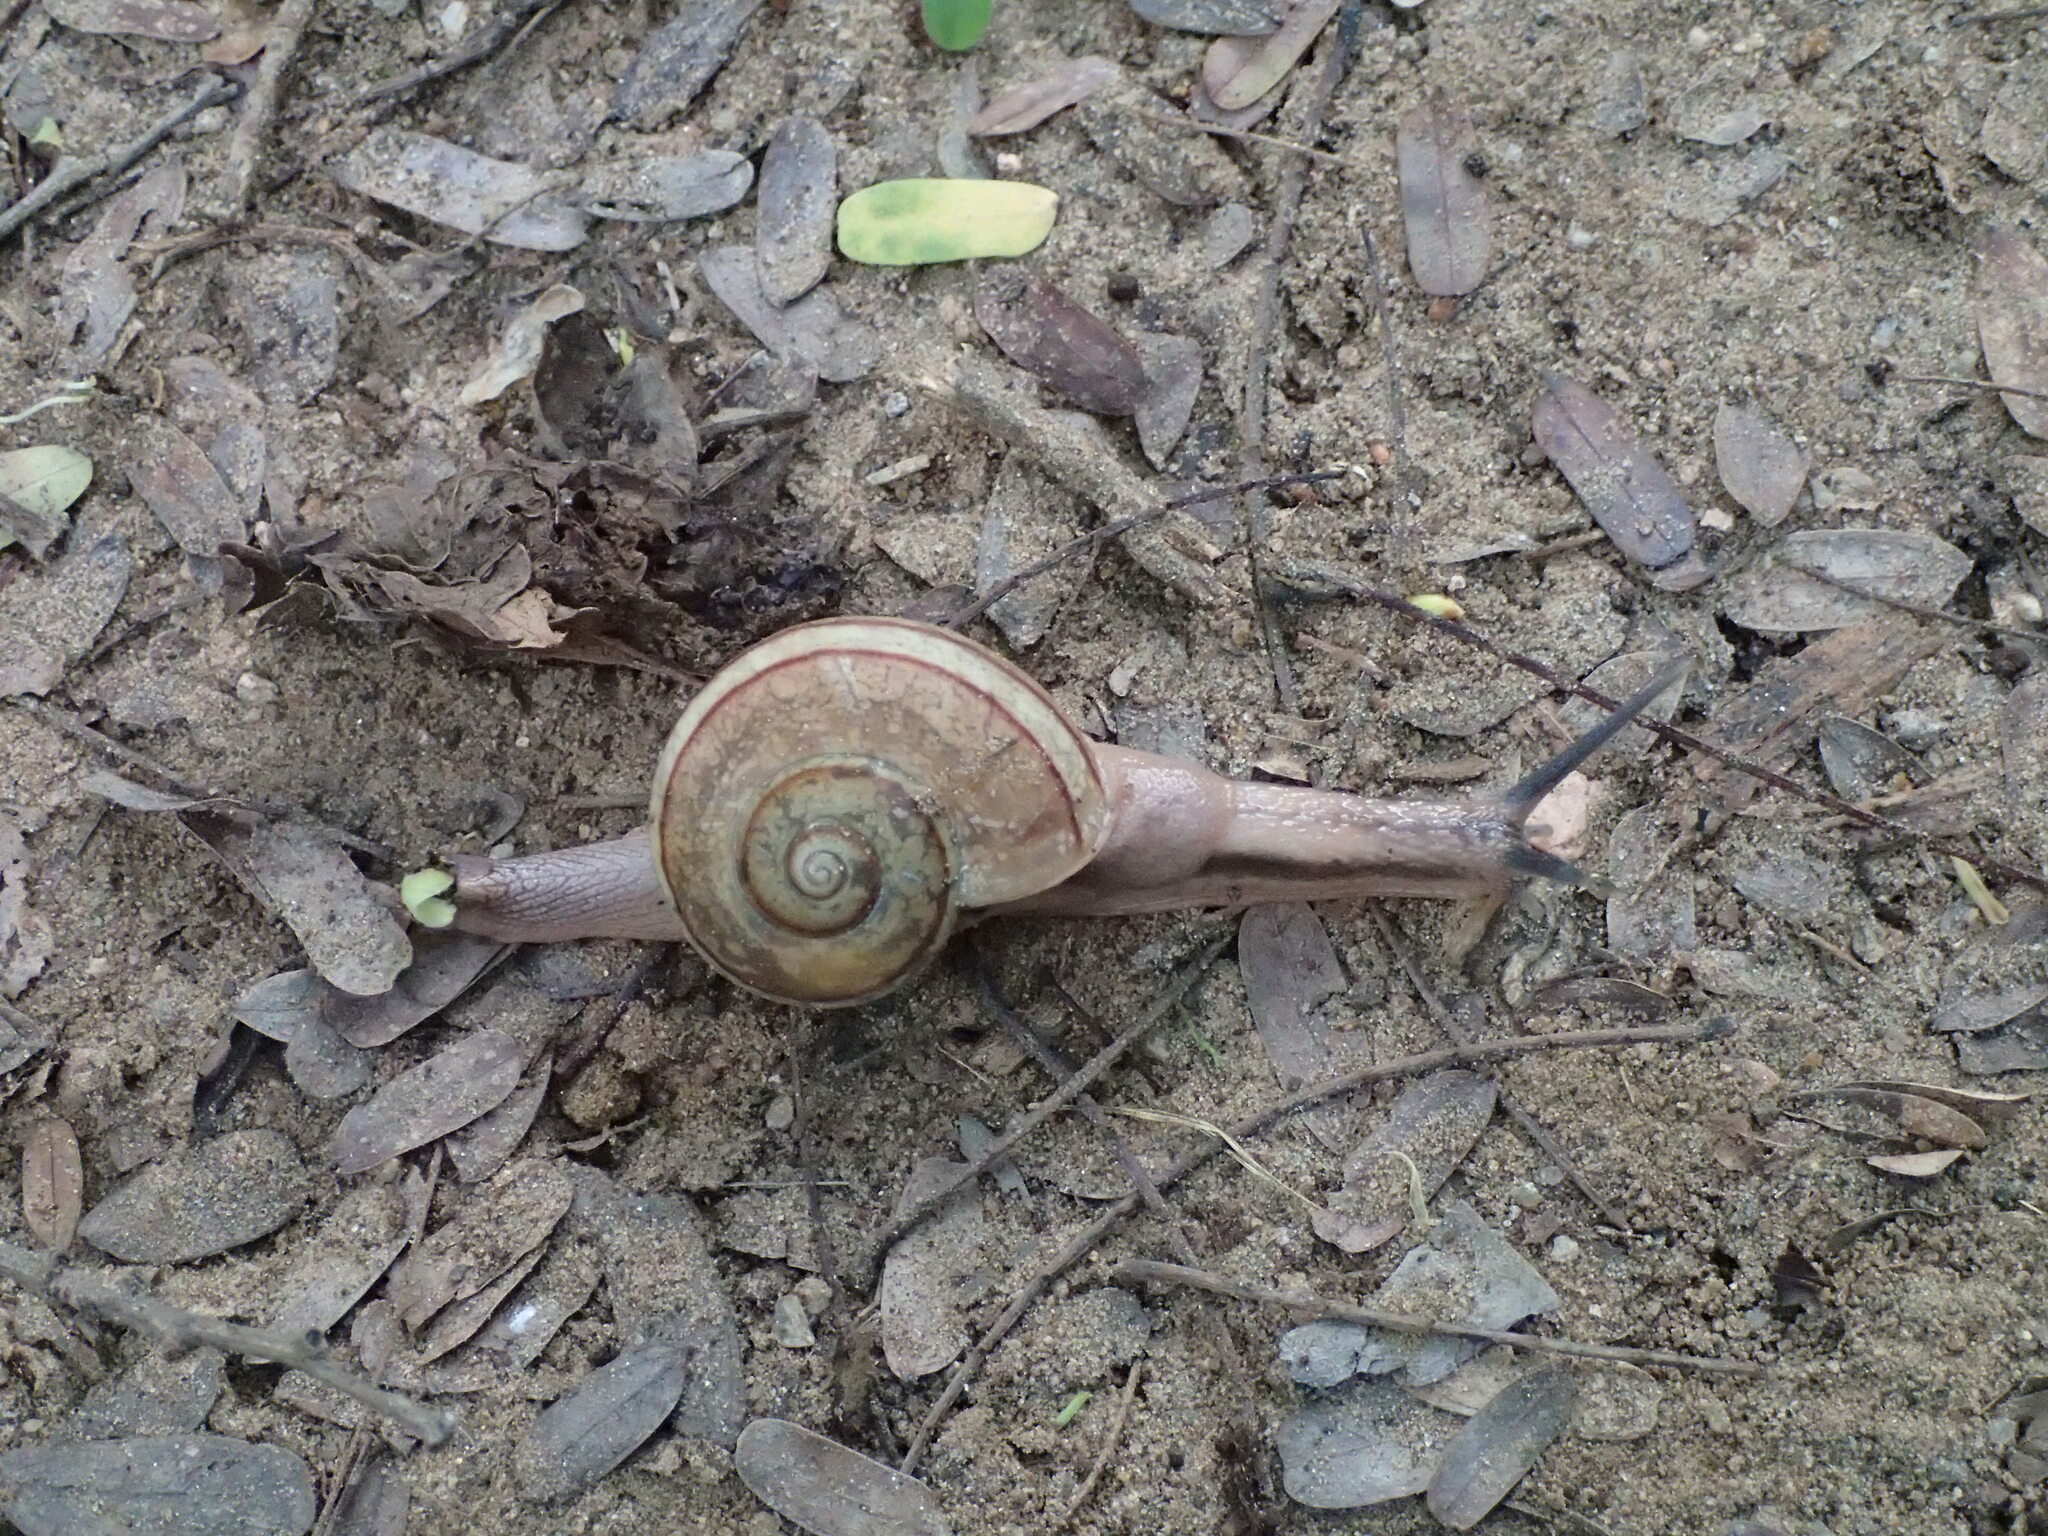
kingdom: Animalia
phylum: Mollusca
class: Gastropoda
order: Stylommatophora
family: Ariophantidae
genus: Ariophanta
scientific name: Ariophanta exilis
